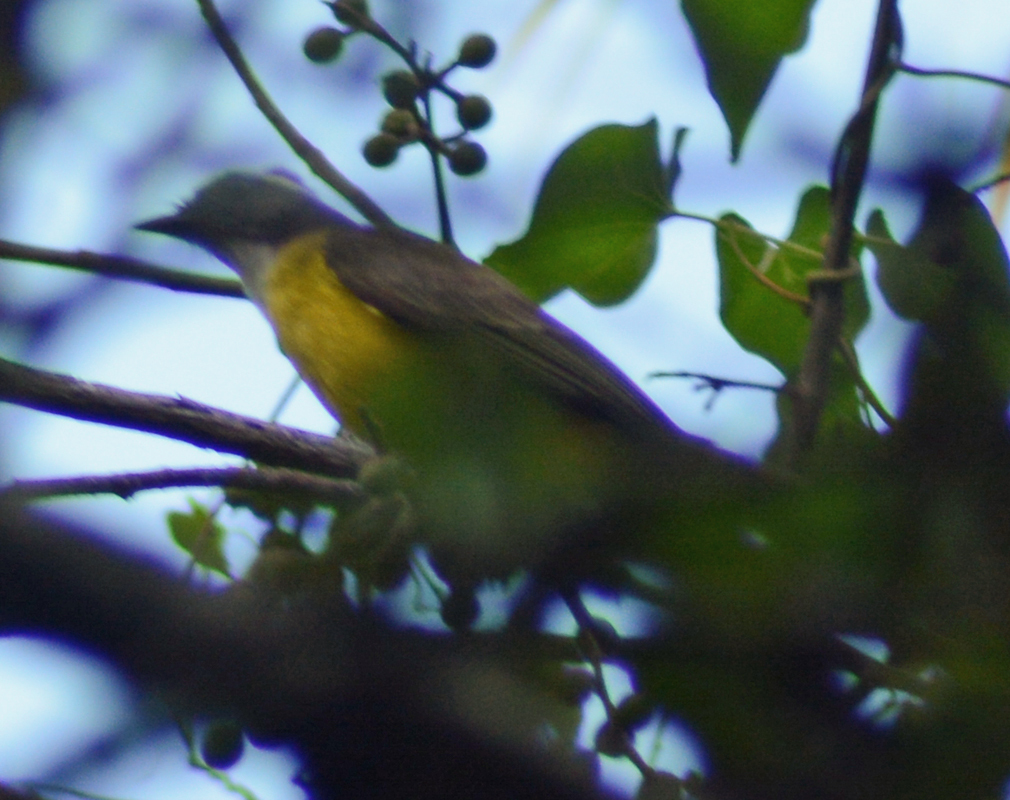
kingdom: Animalia
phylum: Chordata
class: Aves
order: Passeriformes
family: Tyrannidae
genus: Myiozetetes
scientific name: Myiozetetes similis
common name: Social flycatcher
